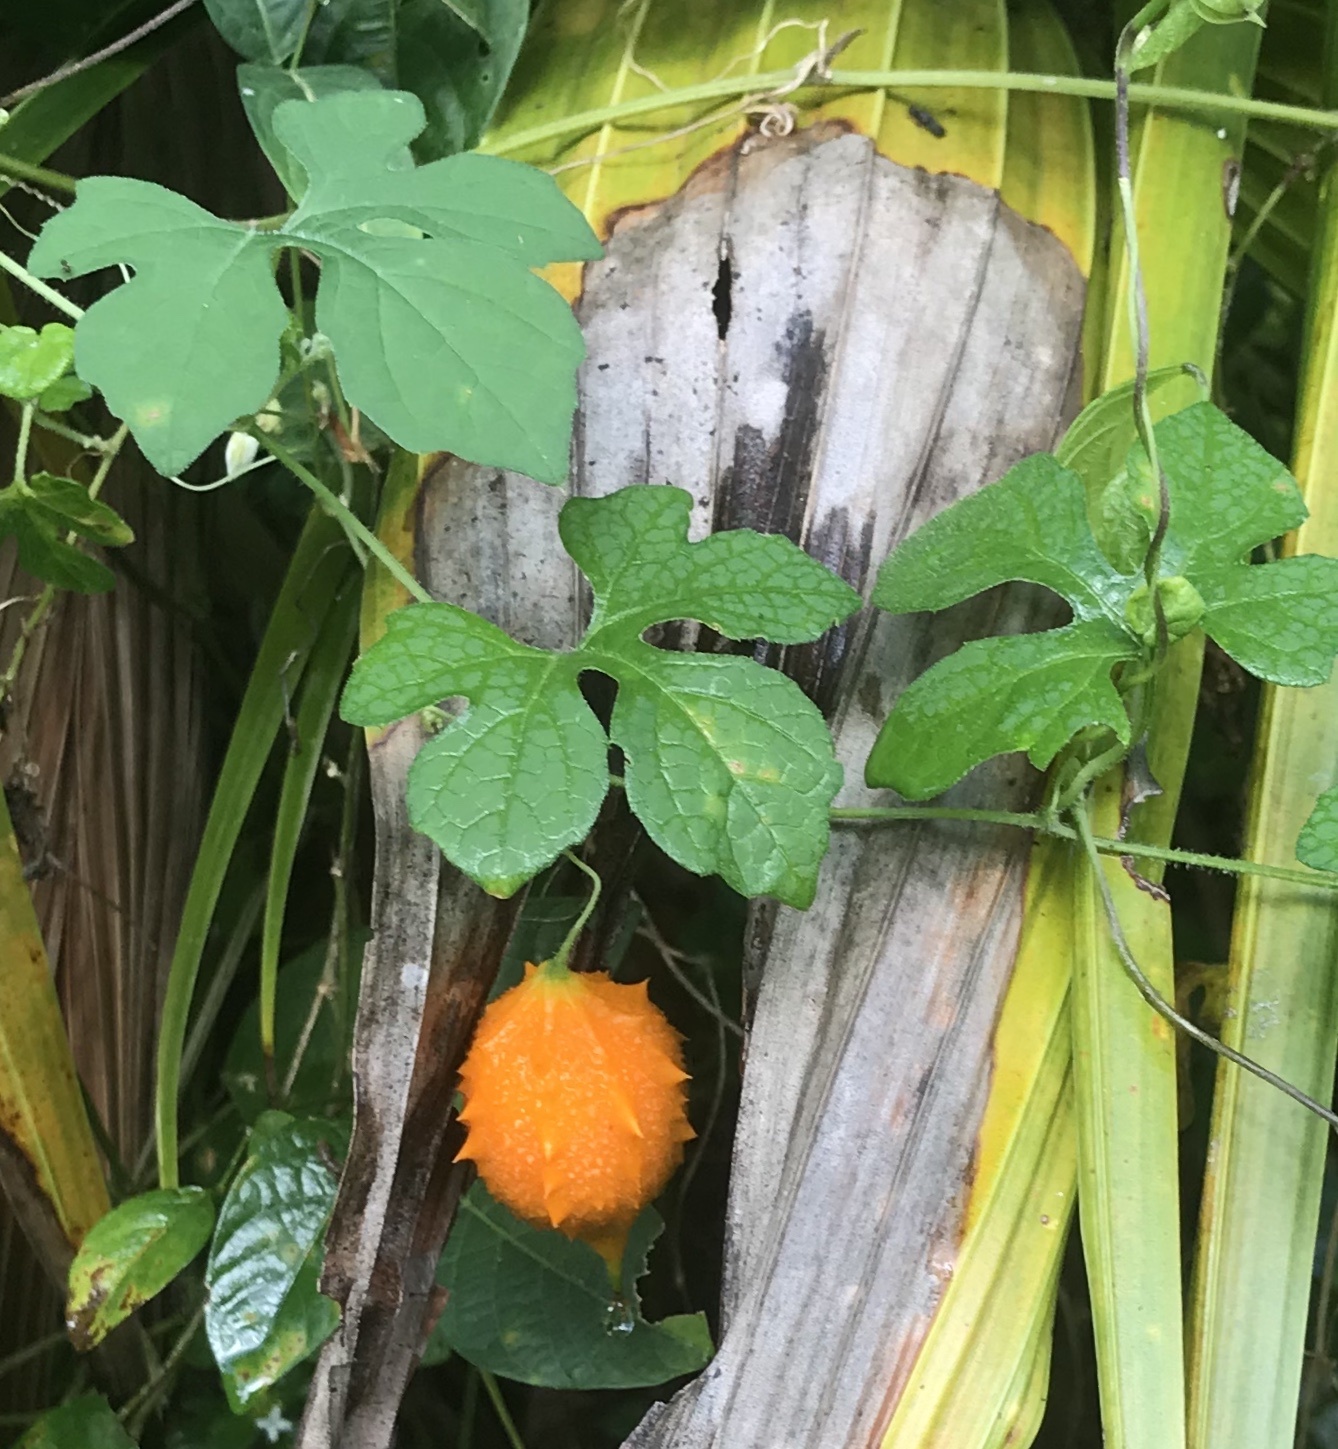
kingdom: Plantae
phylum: Tracheophyta
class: Magnoliopsida
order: Cucurbitales
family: Cucurbitaceae
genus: Momordica
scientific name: Momordica charantia
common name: Balsampear
